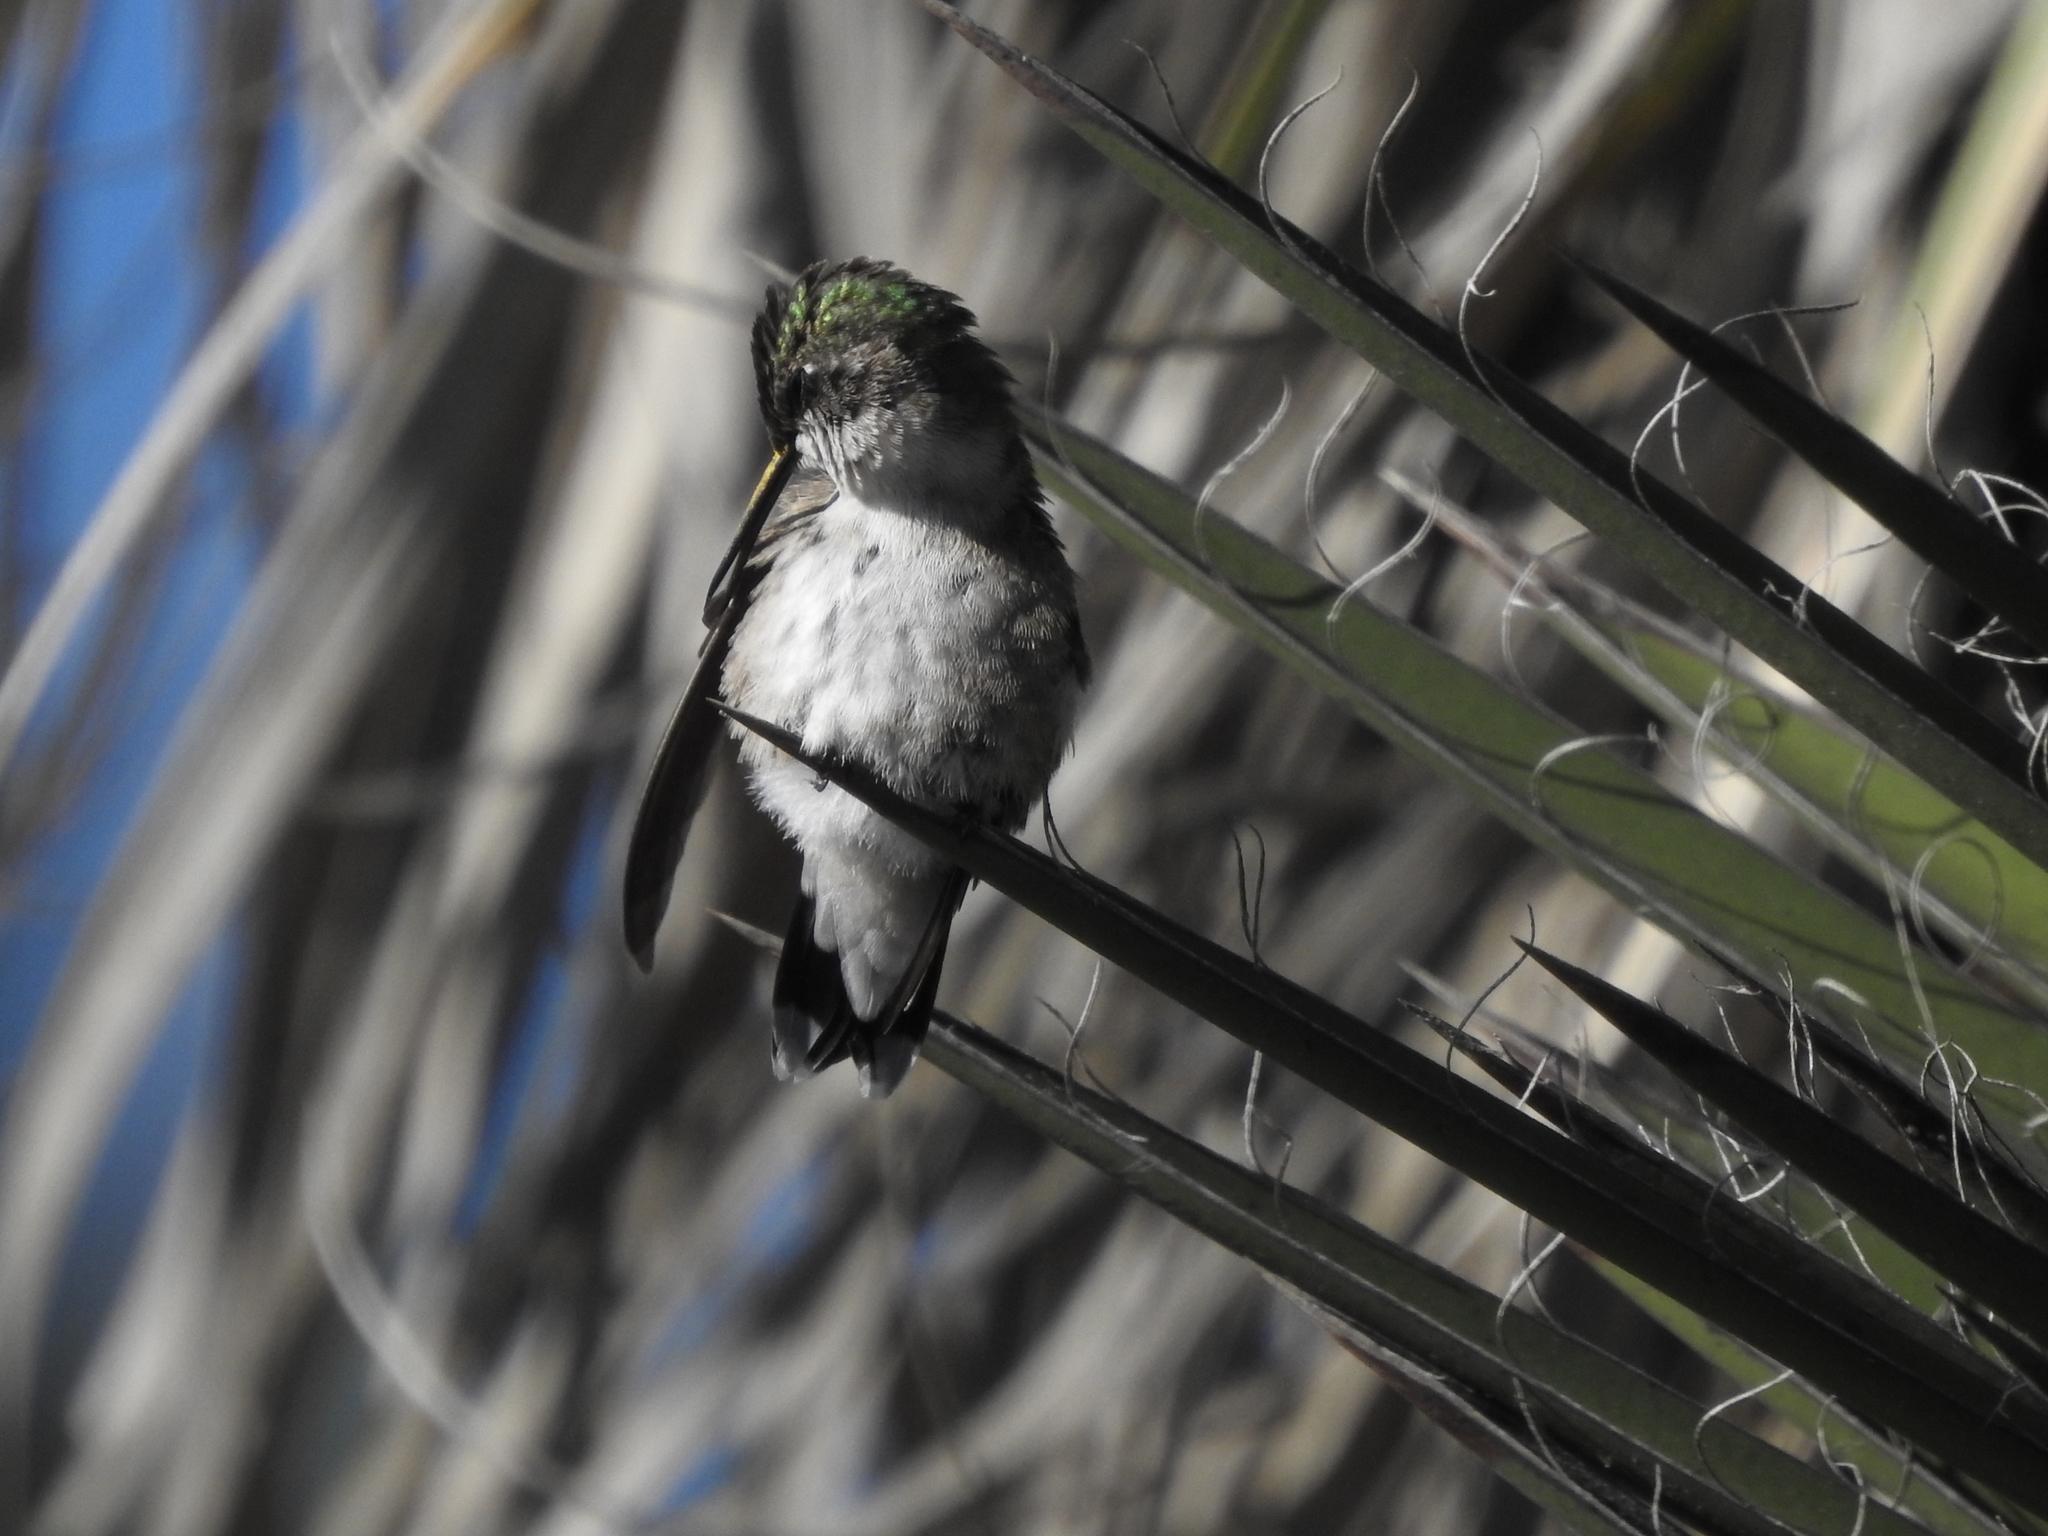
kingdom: Animalia
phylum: Chordata
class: Aves
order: Apodiformes
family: Trochilidae
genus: Archilochus
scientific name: Archilochus colubris
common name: Ruby-throated hummingbird
